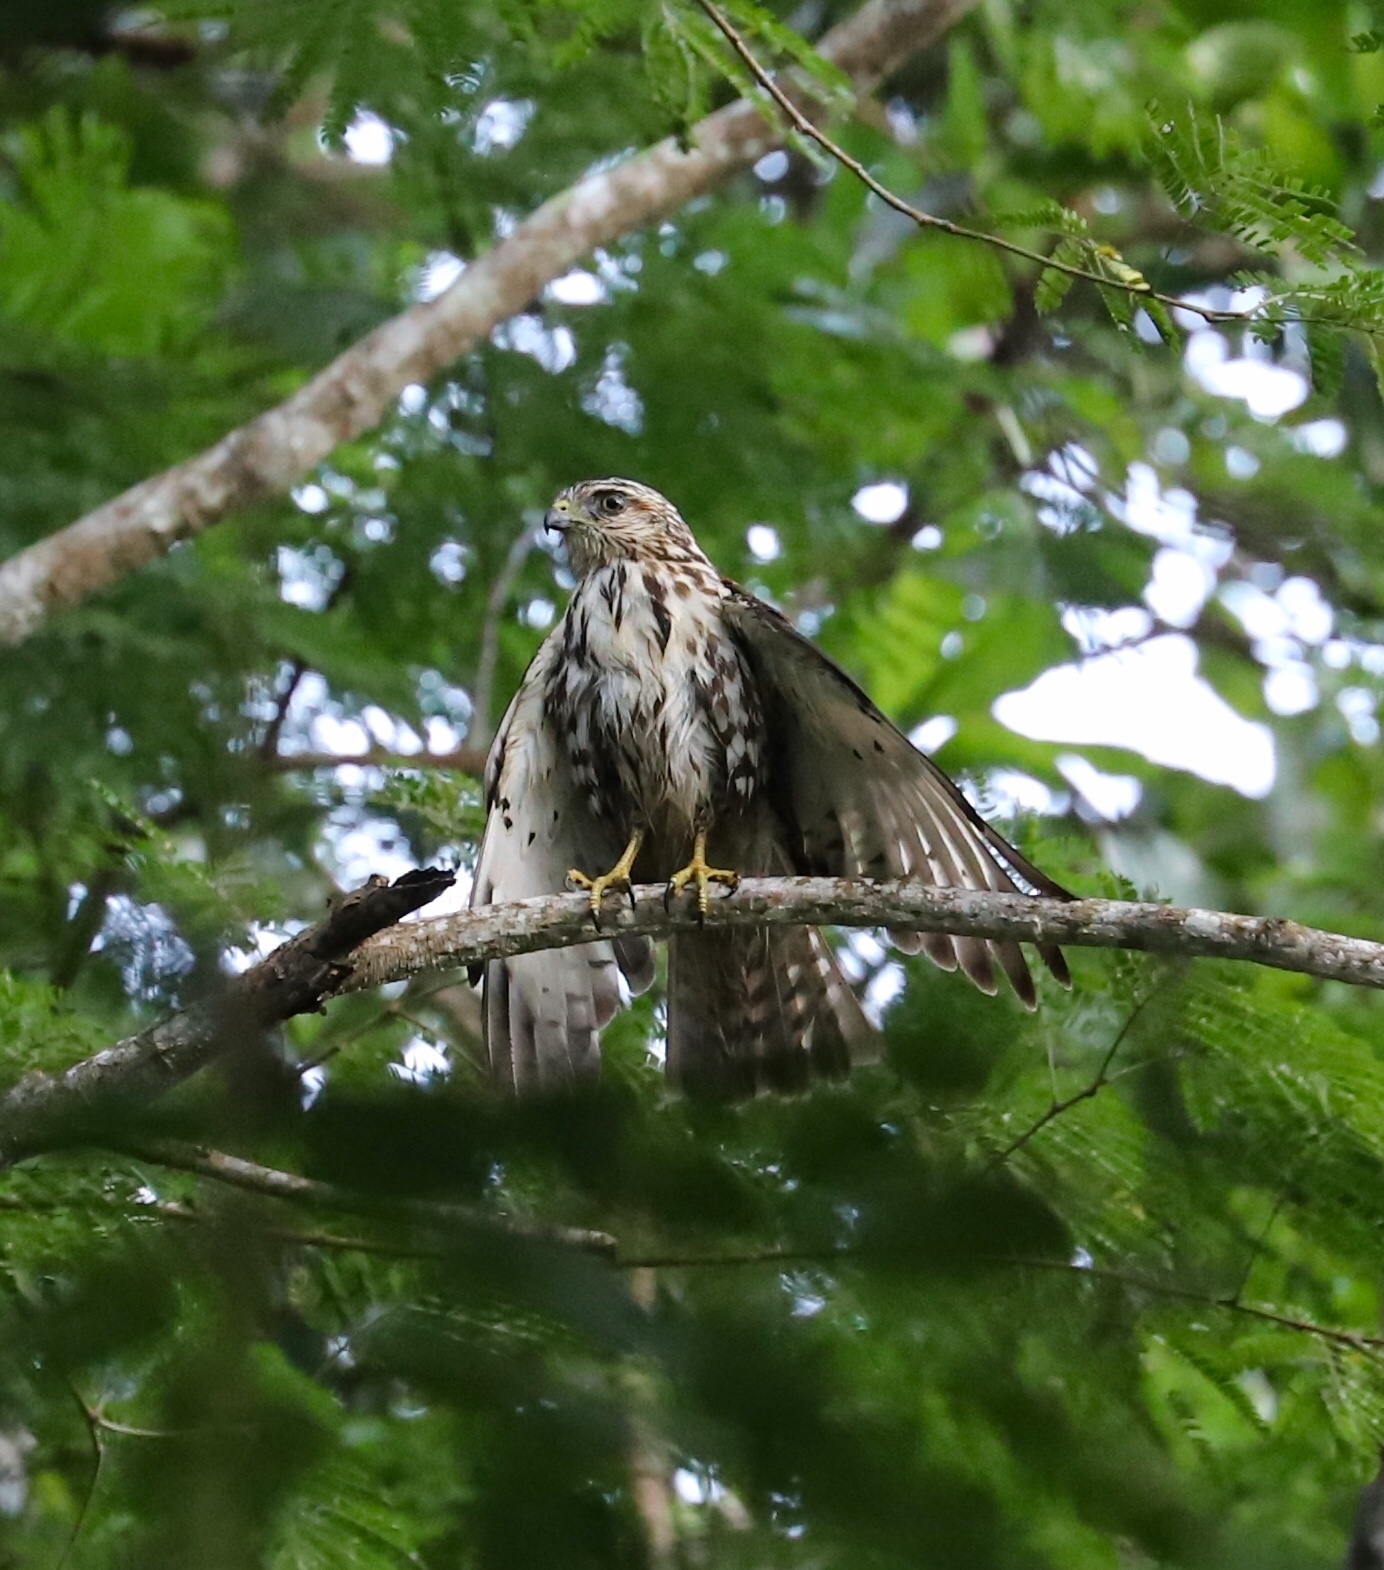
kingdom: Animalia
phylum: Chordata
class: Aves
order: Accipitriformes
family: Accipitridae
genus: Buteo
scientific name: Buteo platypterus
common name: Broad-winged hawk
